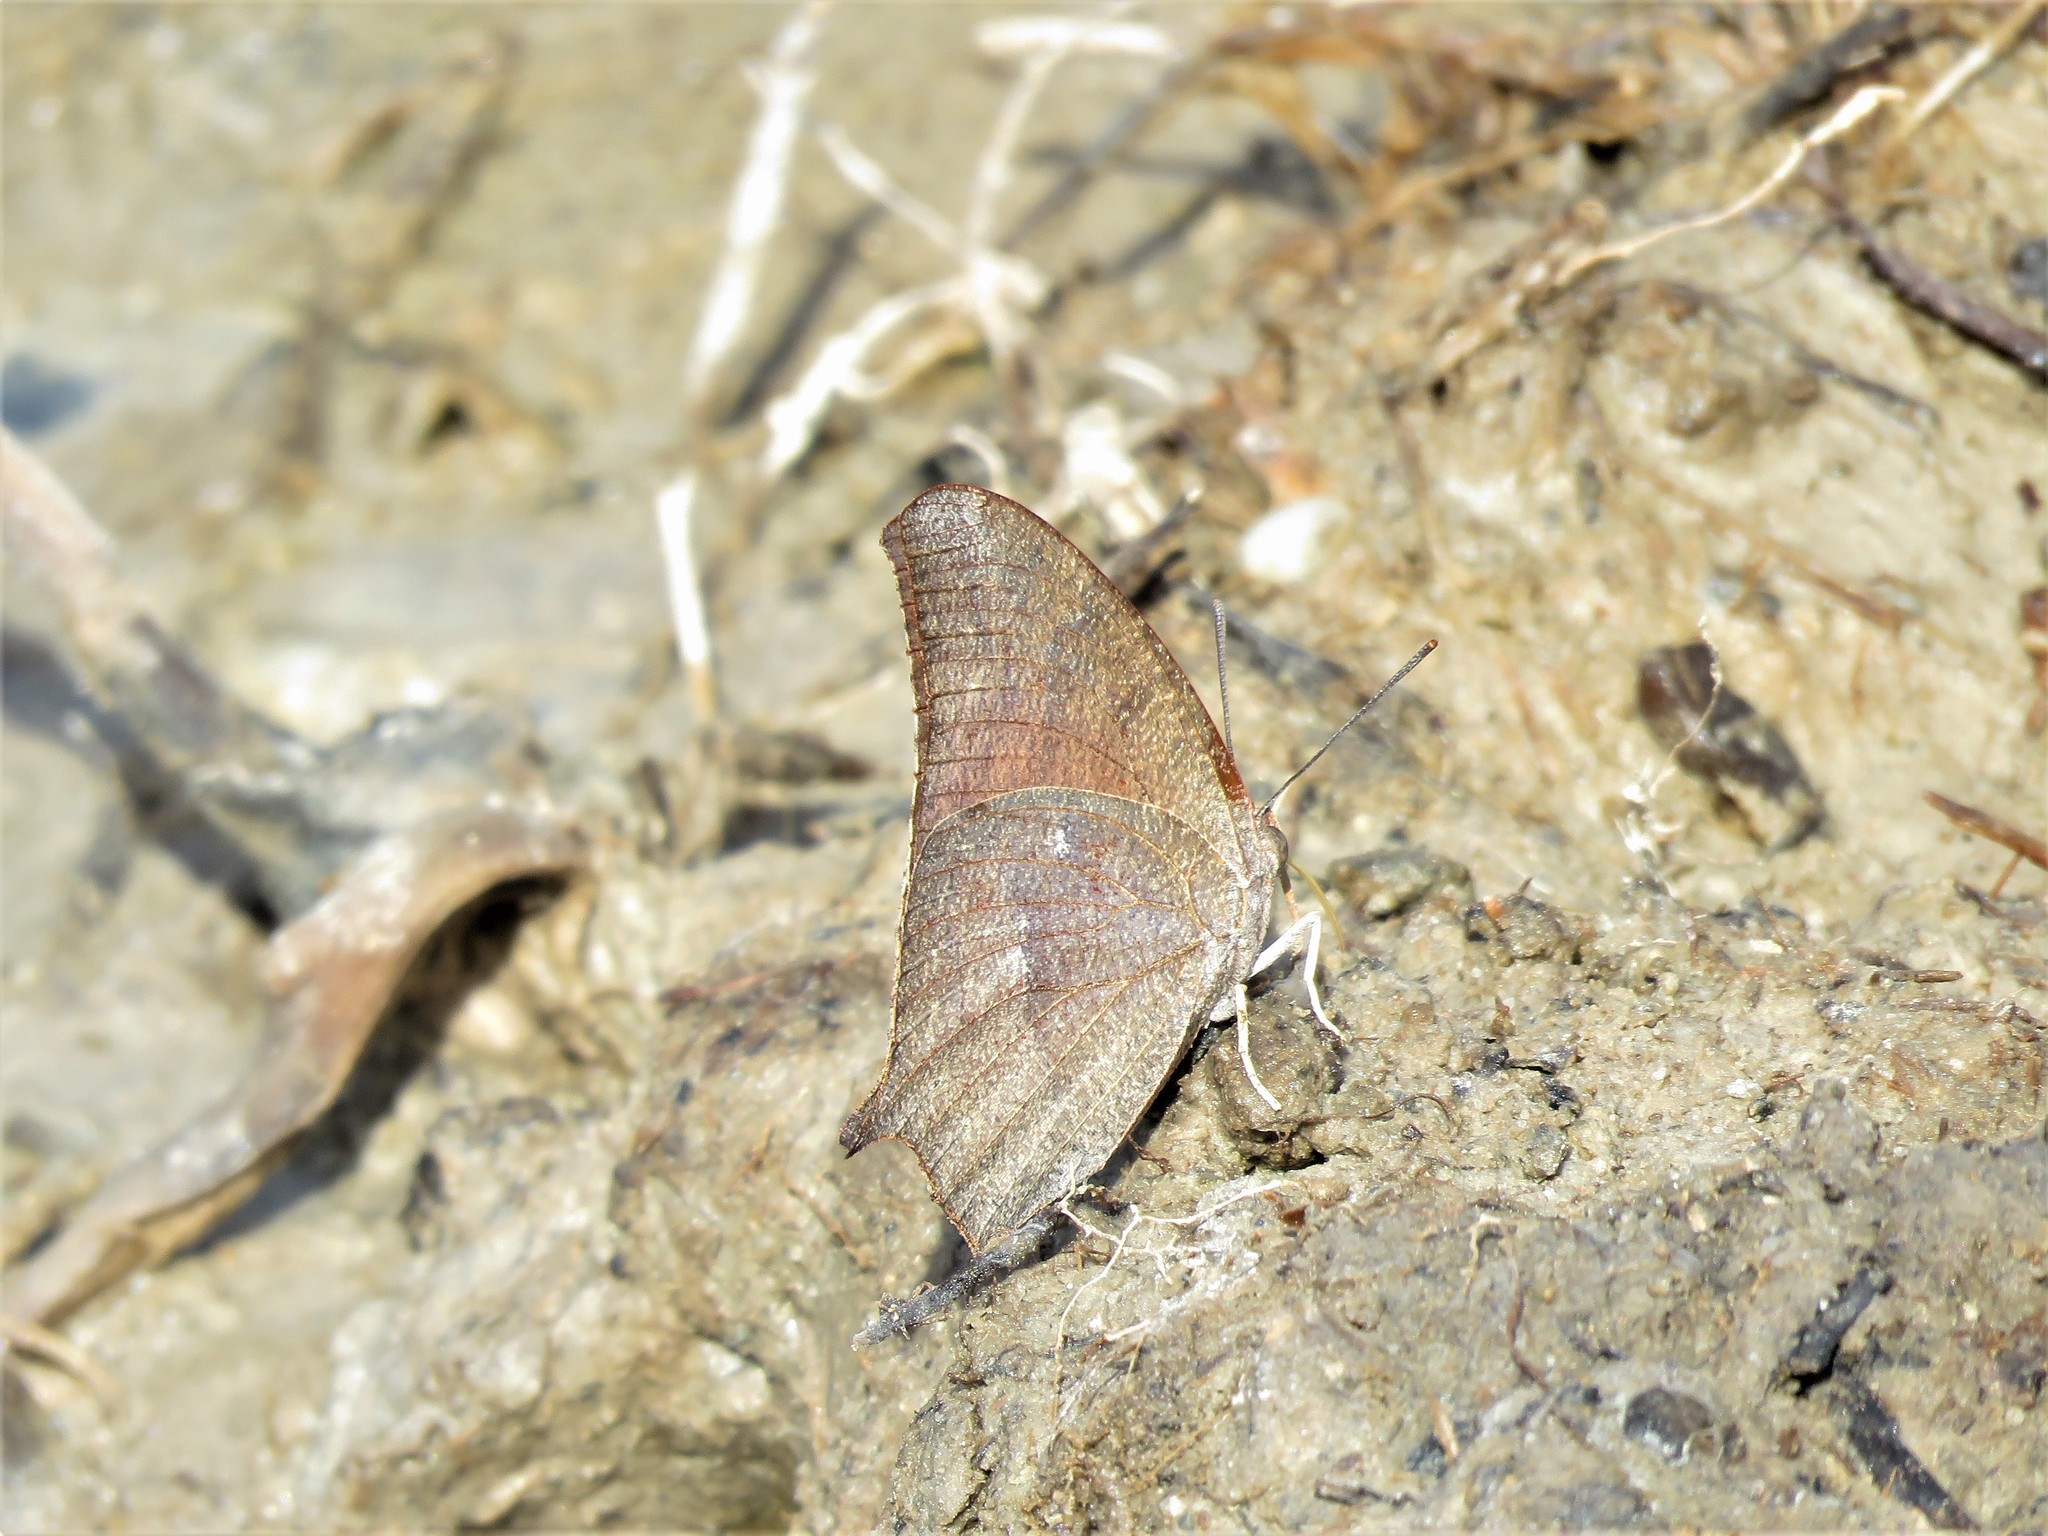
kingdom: Animalia
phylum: Arthropoda
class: Insecta
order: Lepidoptera
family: Nymphalidae
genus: Anaea
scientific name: Anaea andria
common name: Goatweed leafwing
